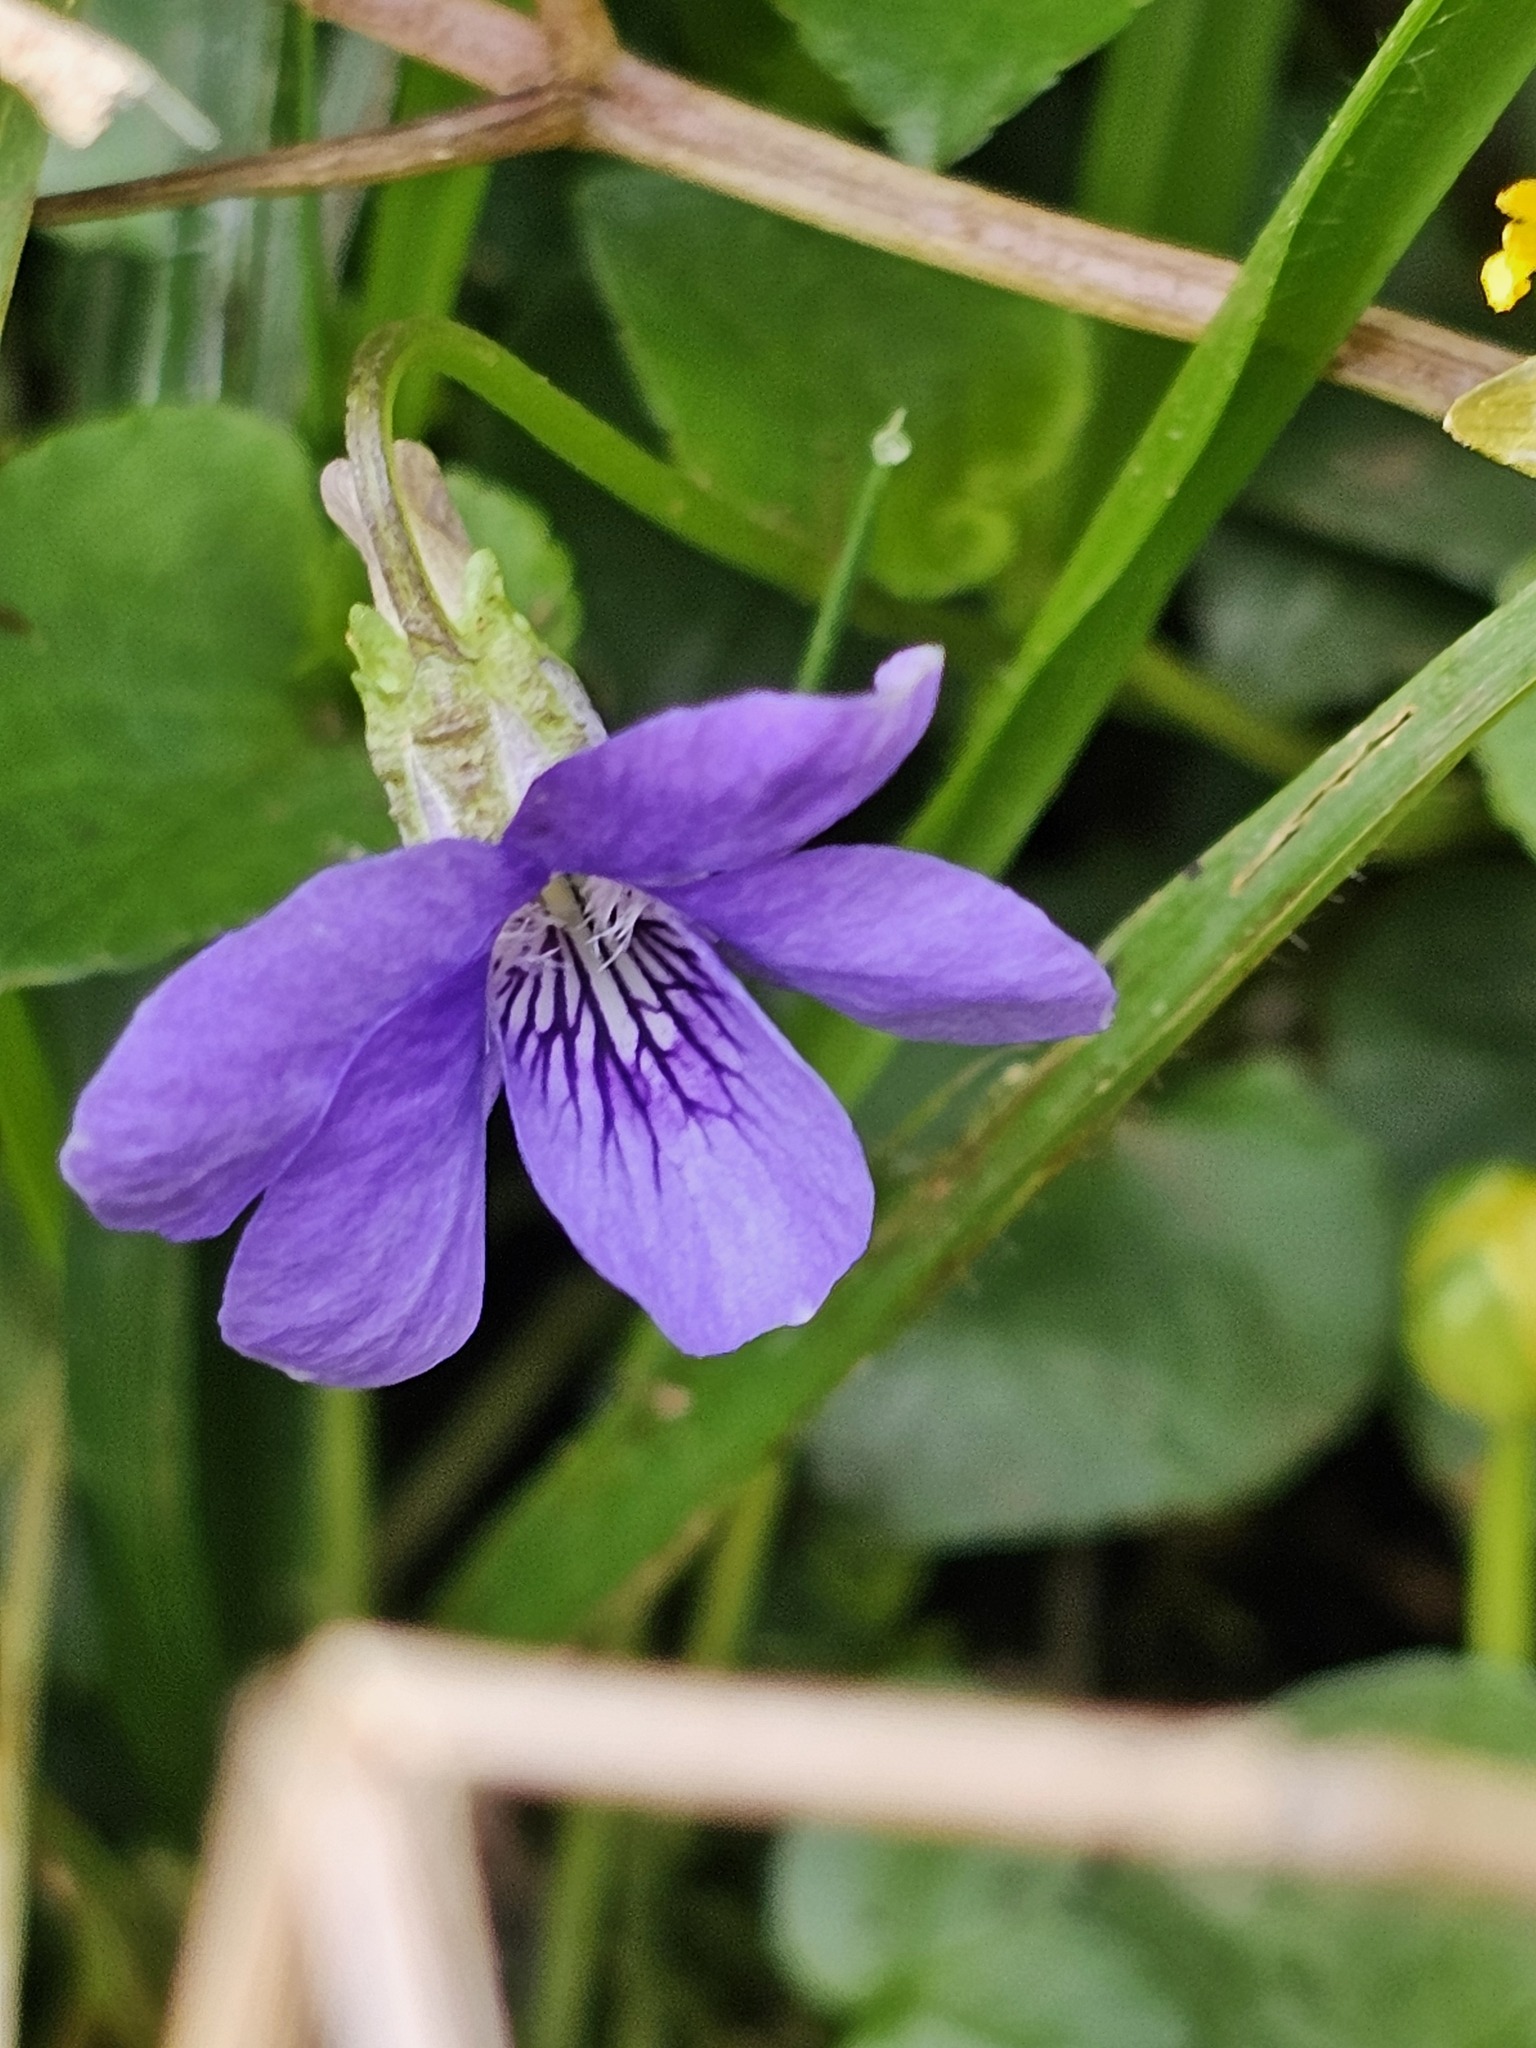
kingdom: Plantae
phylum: Tracheophyta
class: Magnoliopsida
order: Malpighiales
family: Violaceae
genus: Viola
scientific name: Viola riviniana
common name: Common dog-violet
